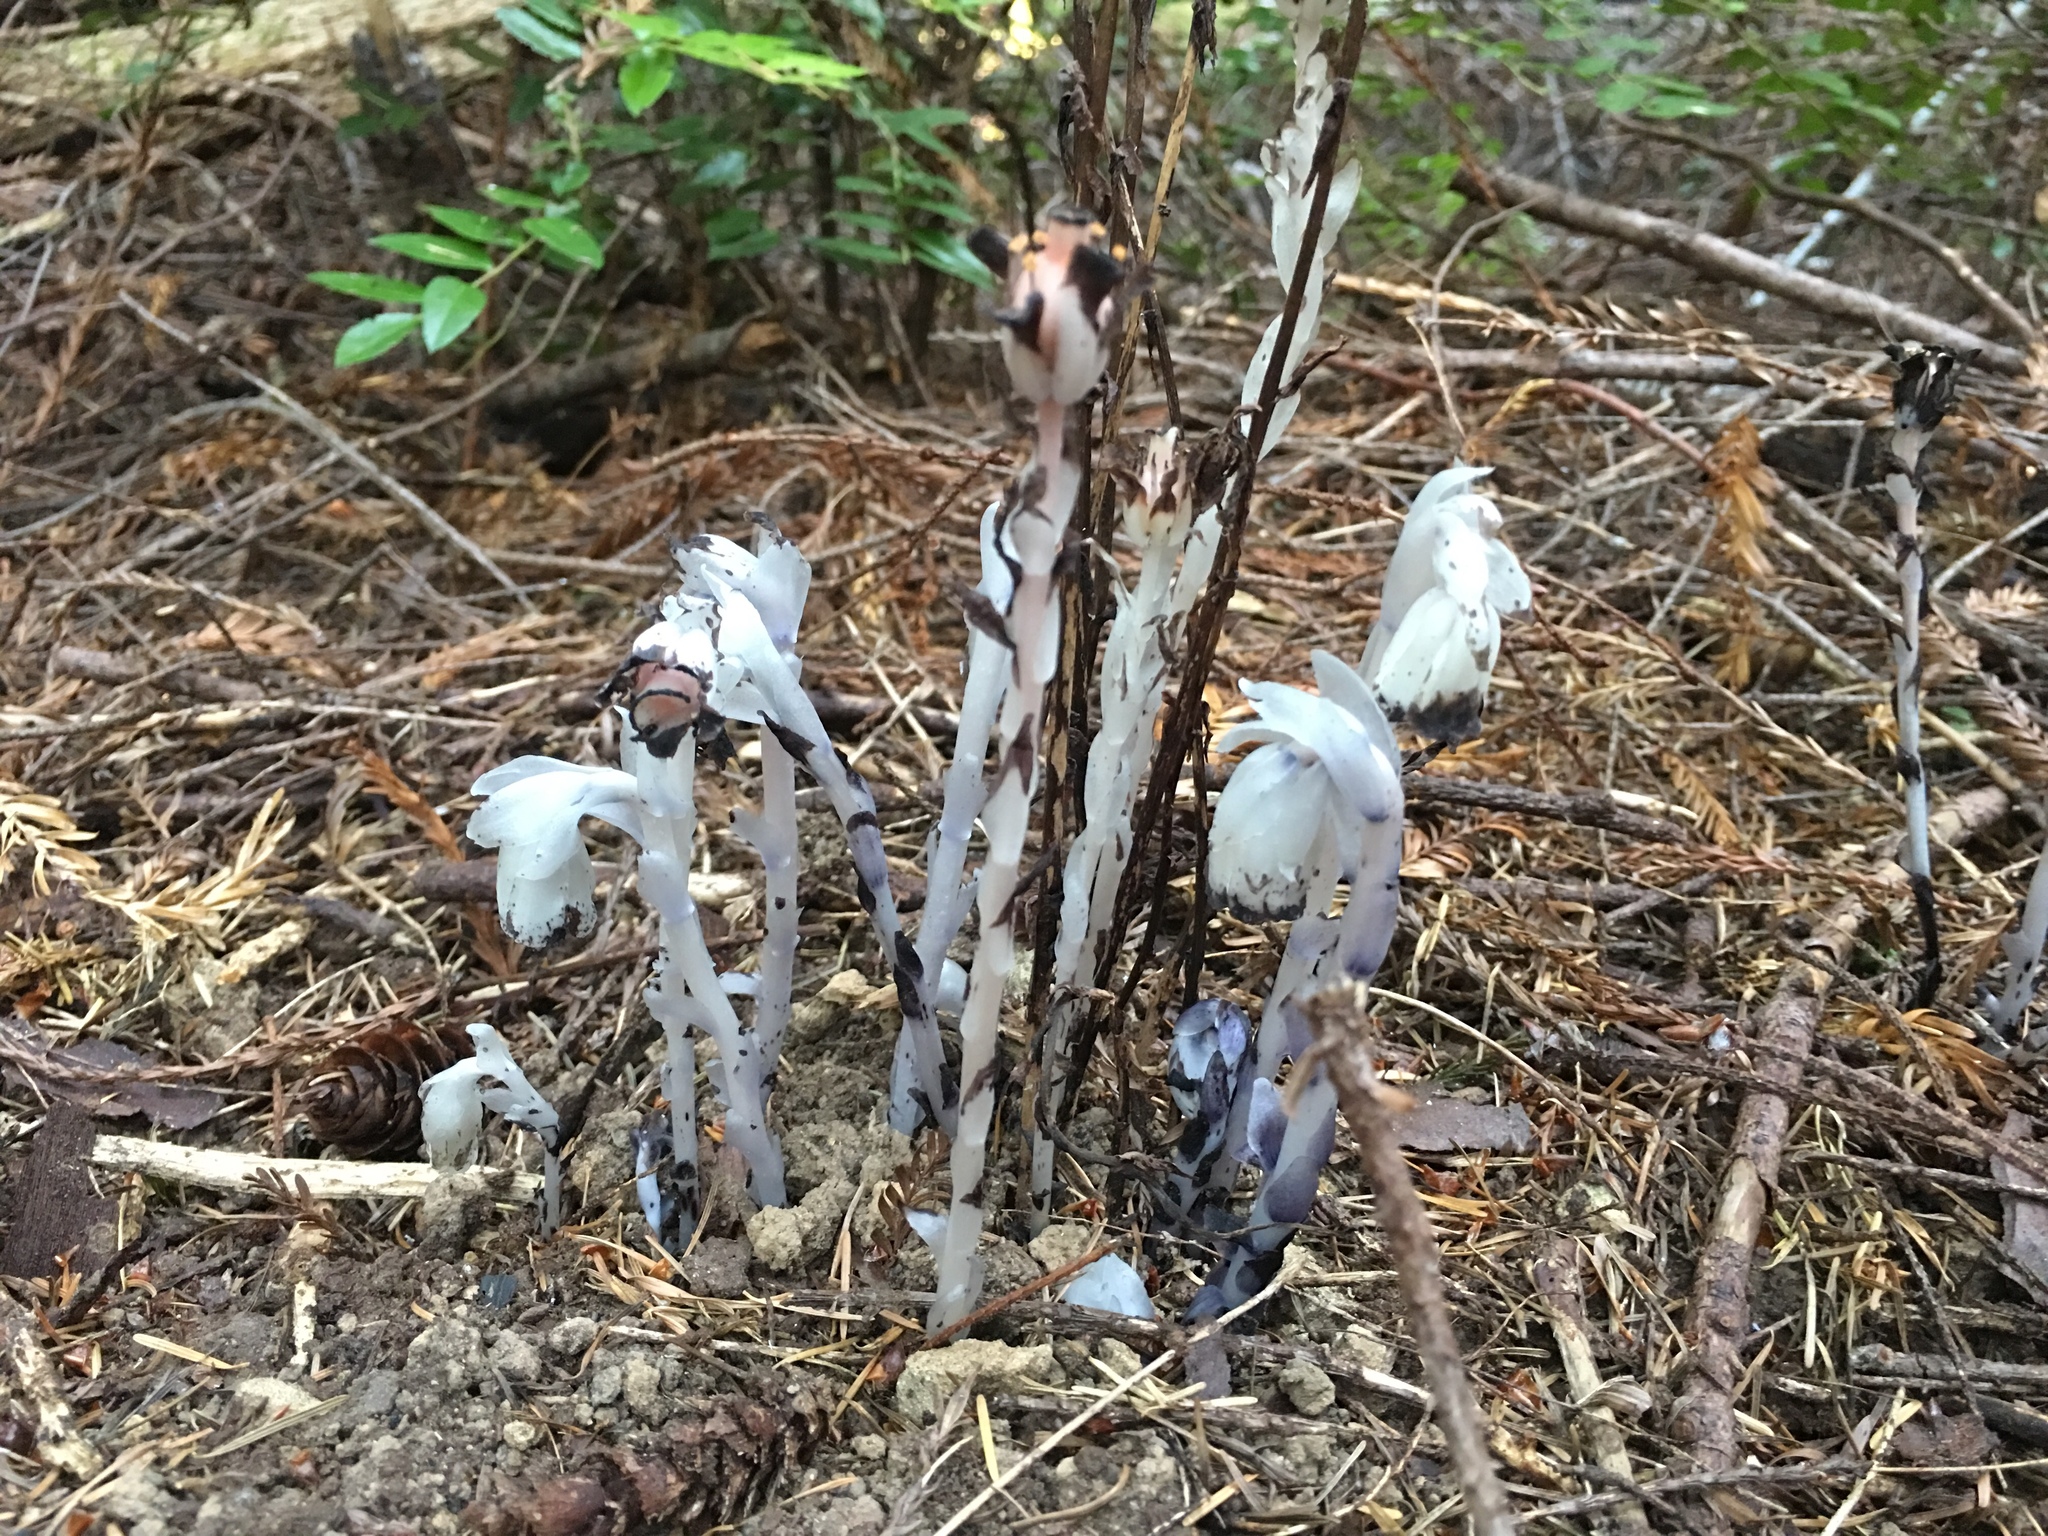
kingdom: Plantae
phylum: Tracheophyta
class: Magnoliopsida
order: Ericales
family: Ericaceae
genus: Monotropa
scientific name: Monotropa uniflora
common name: Convulsion root
